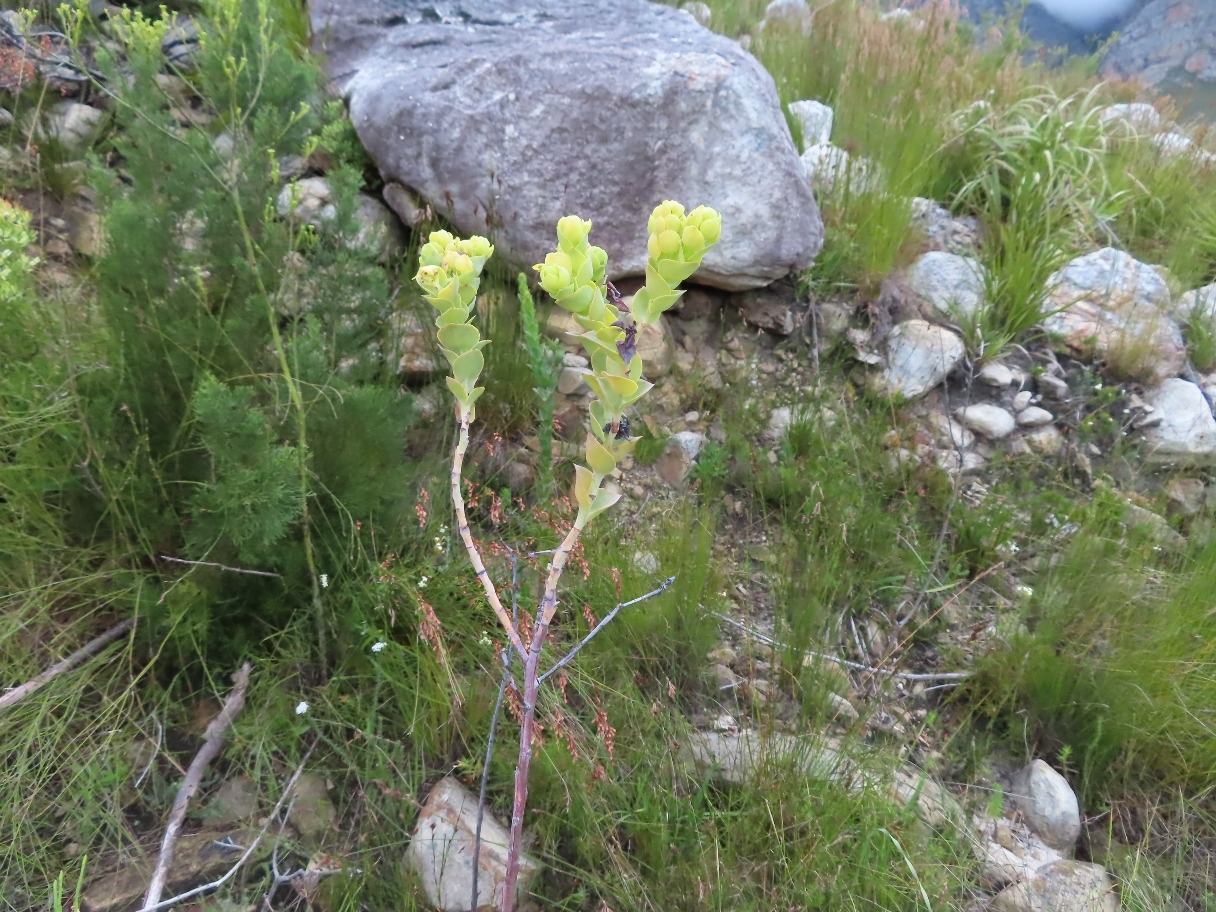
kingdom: Plantae
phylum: Tracheophyta
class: Magnoliopsida
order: Santalales
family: Thesiaceae
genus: Thesium
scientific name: Thesium euphorbioides
